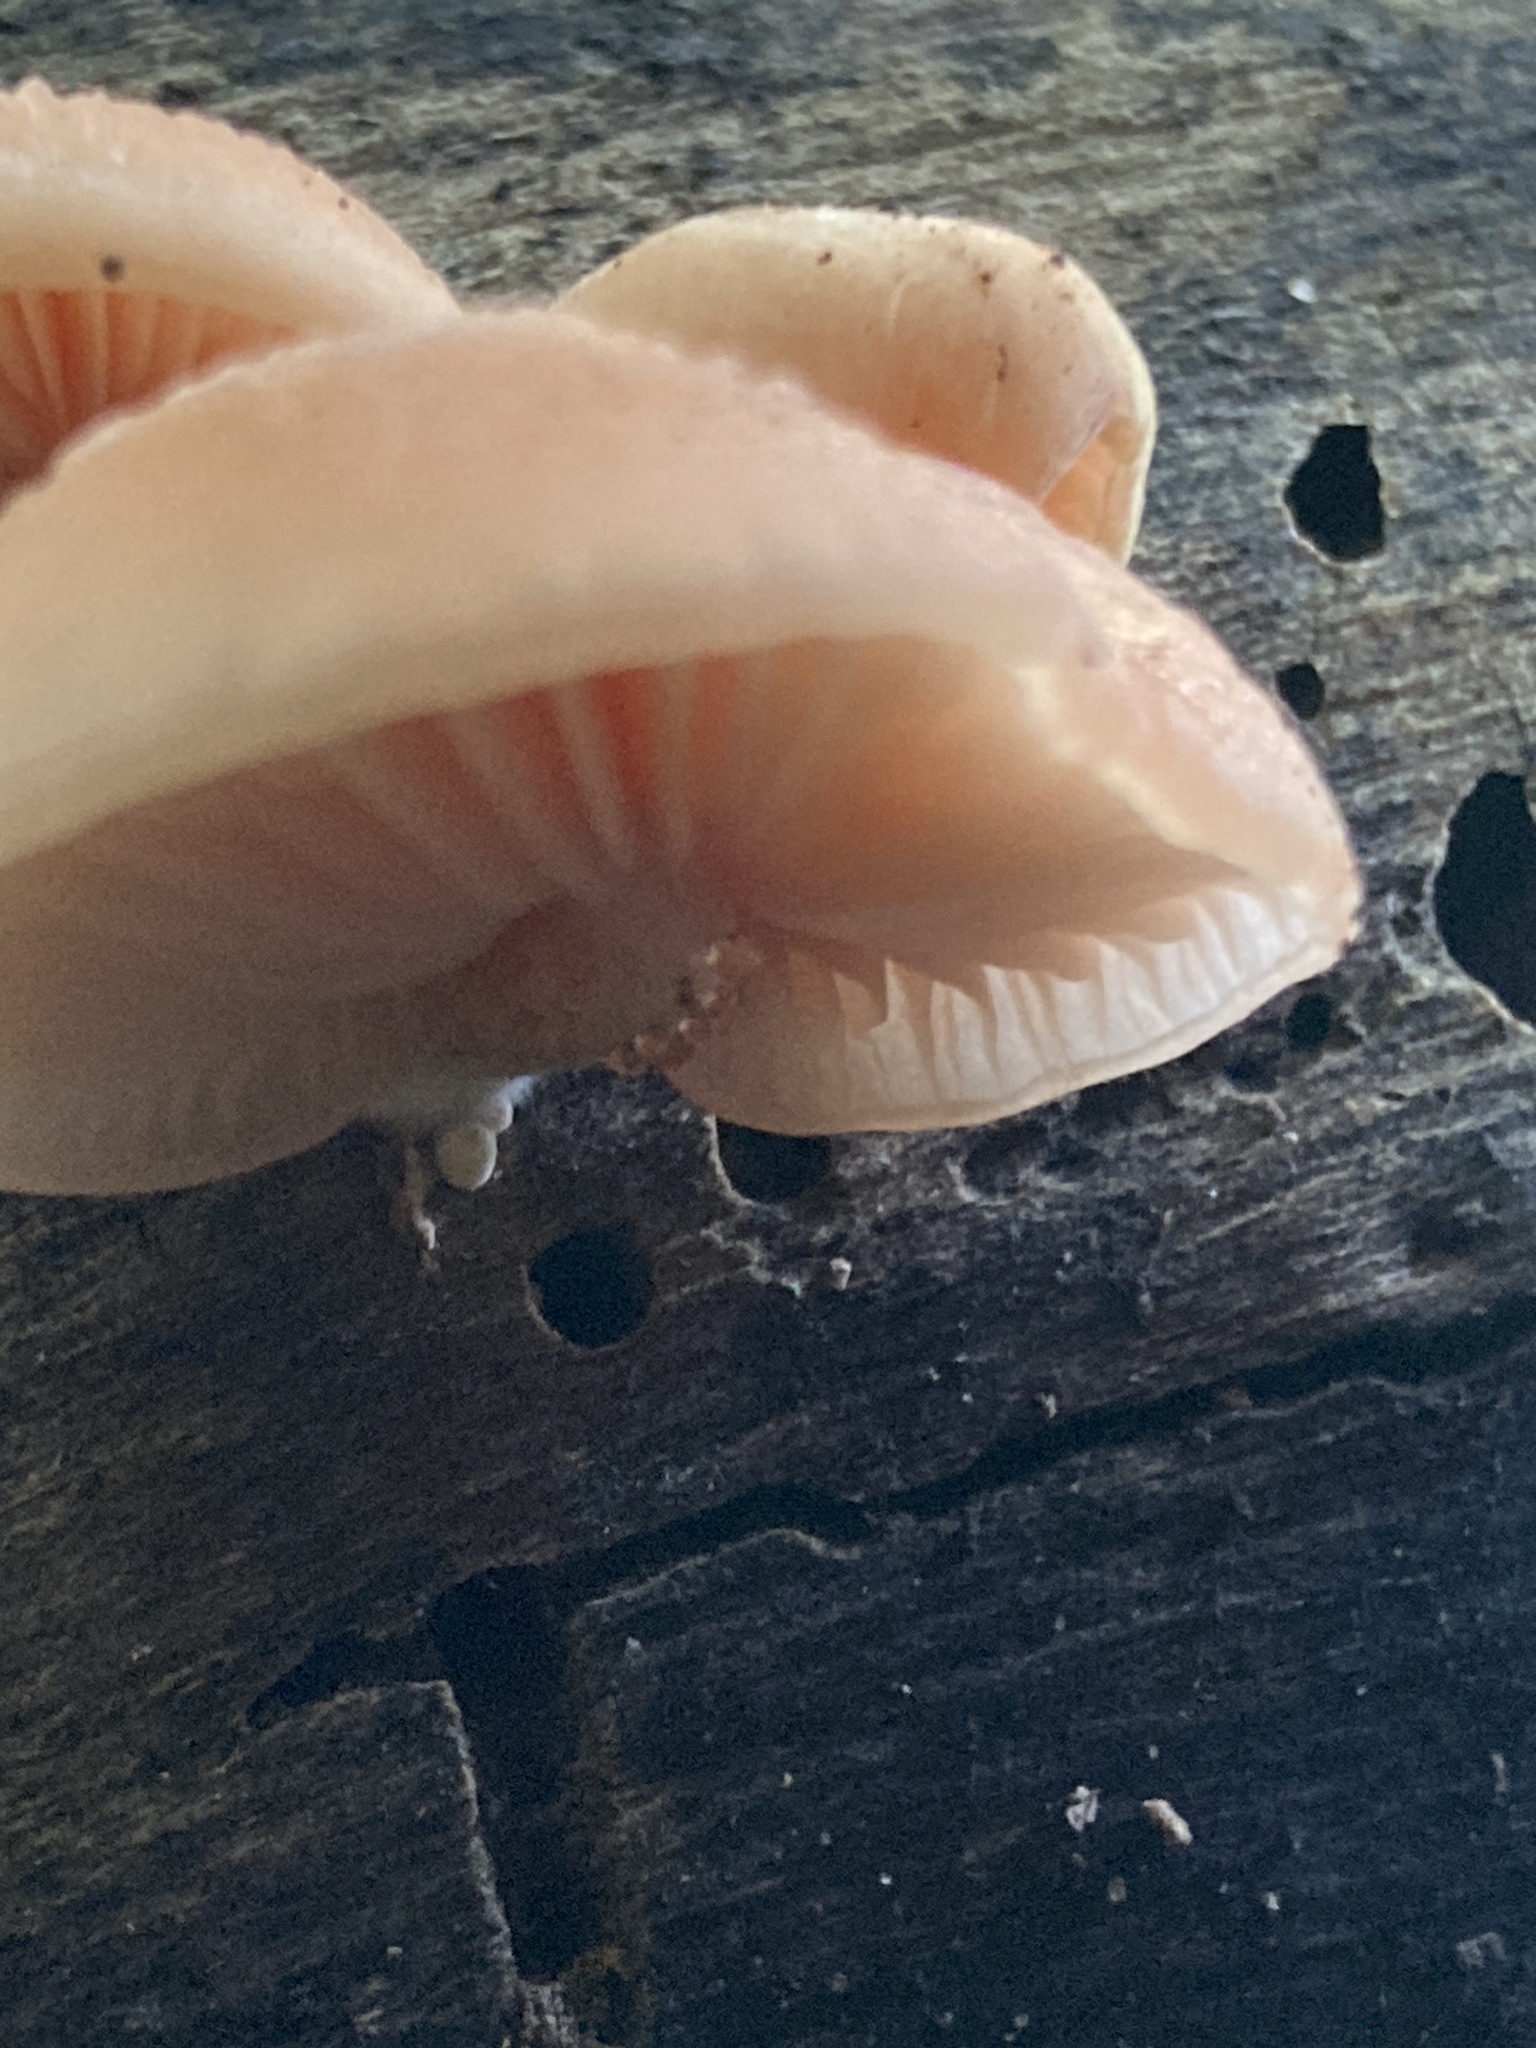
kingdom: Fungi
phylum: Basidiomycota
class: Agaricomycetes
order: Agaricales
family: Physalacriaceae
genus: Rhodotus
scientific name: Rhodotus palmatus
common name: Wrinkled peach
